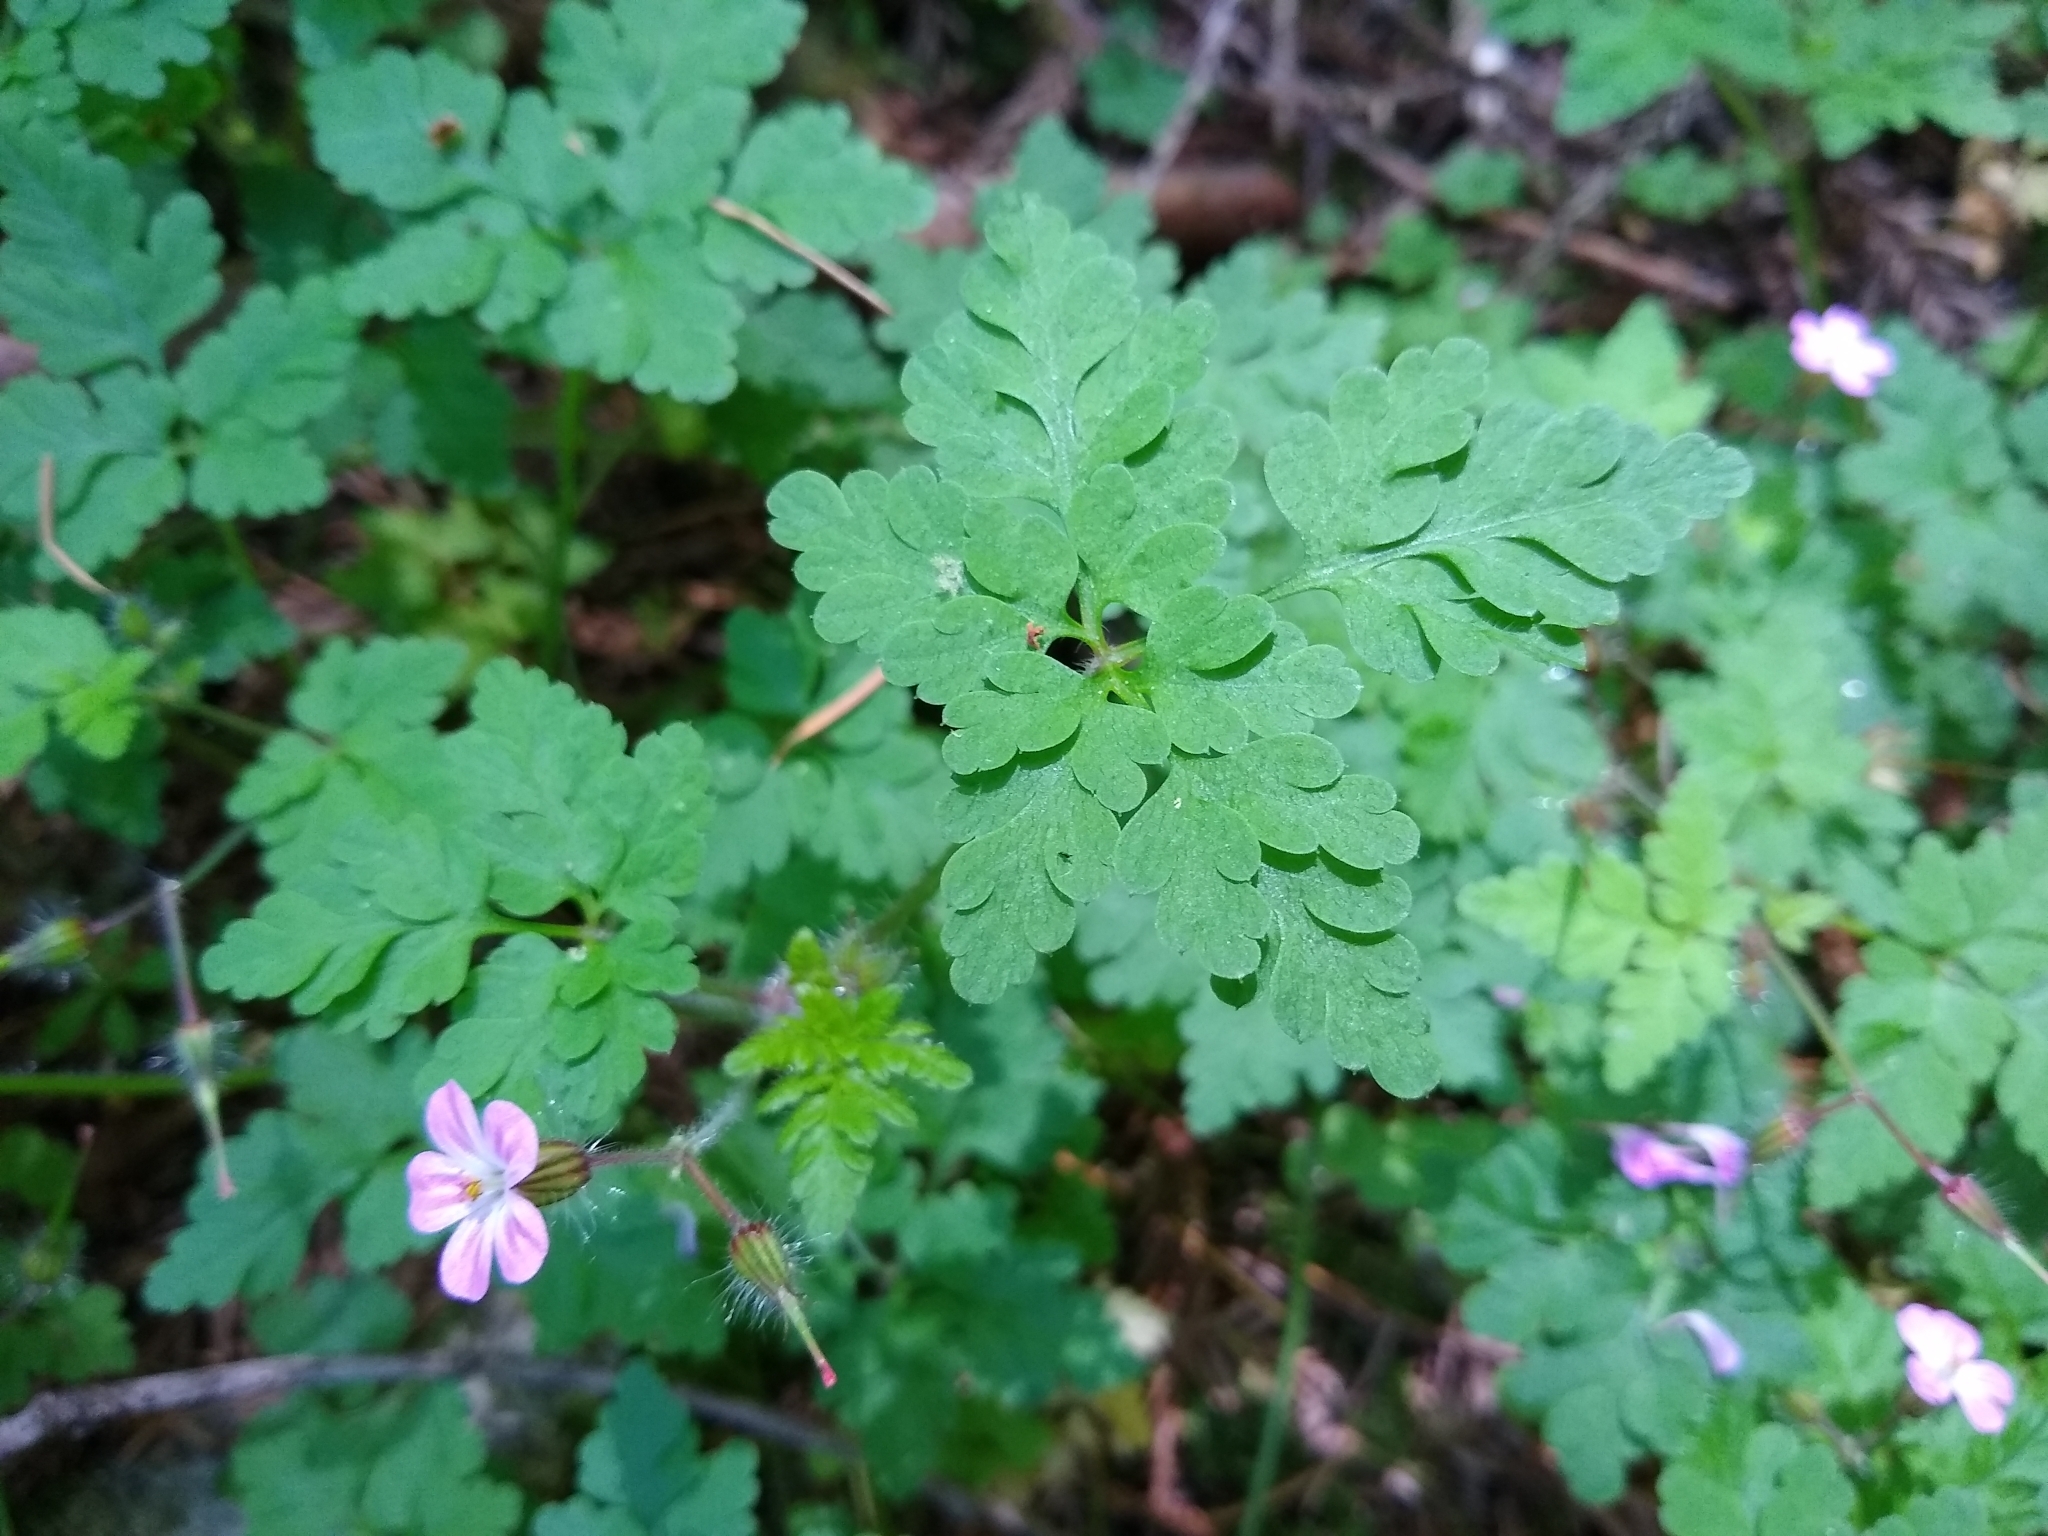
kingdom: Plantae
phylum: Tracheophyta
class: Magnoliopsida
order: Geraniales
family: Geraniaceae
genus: Geranium
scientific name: Geranium robertianum
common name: Herb-robert
